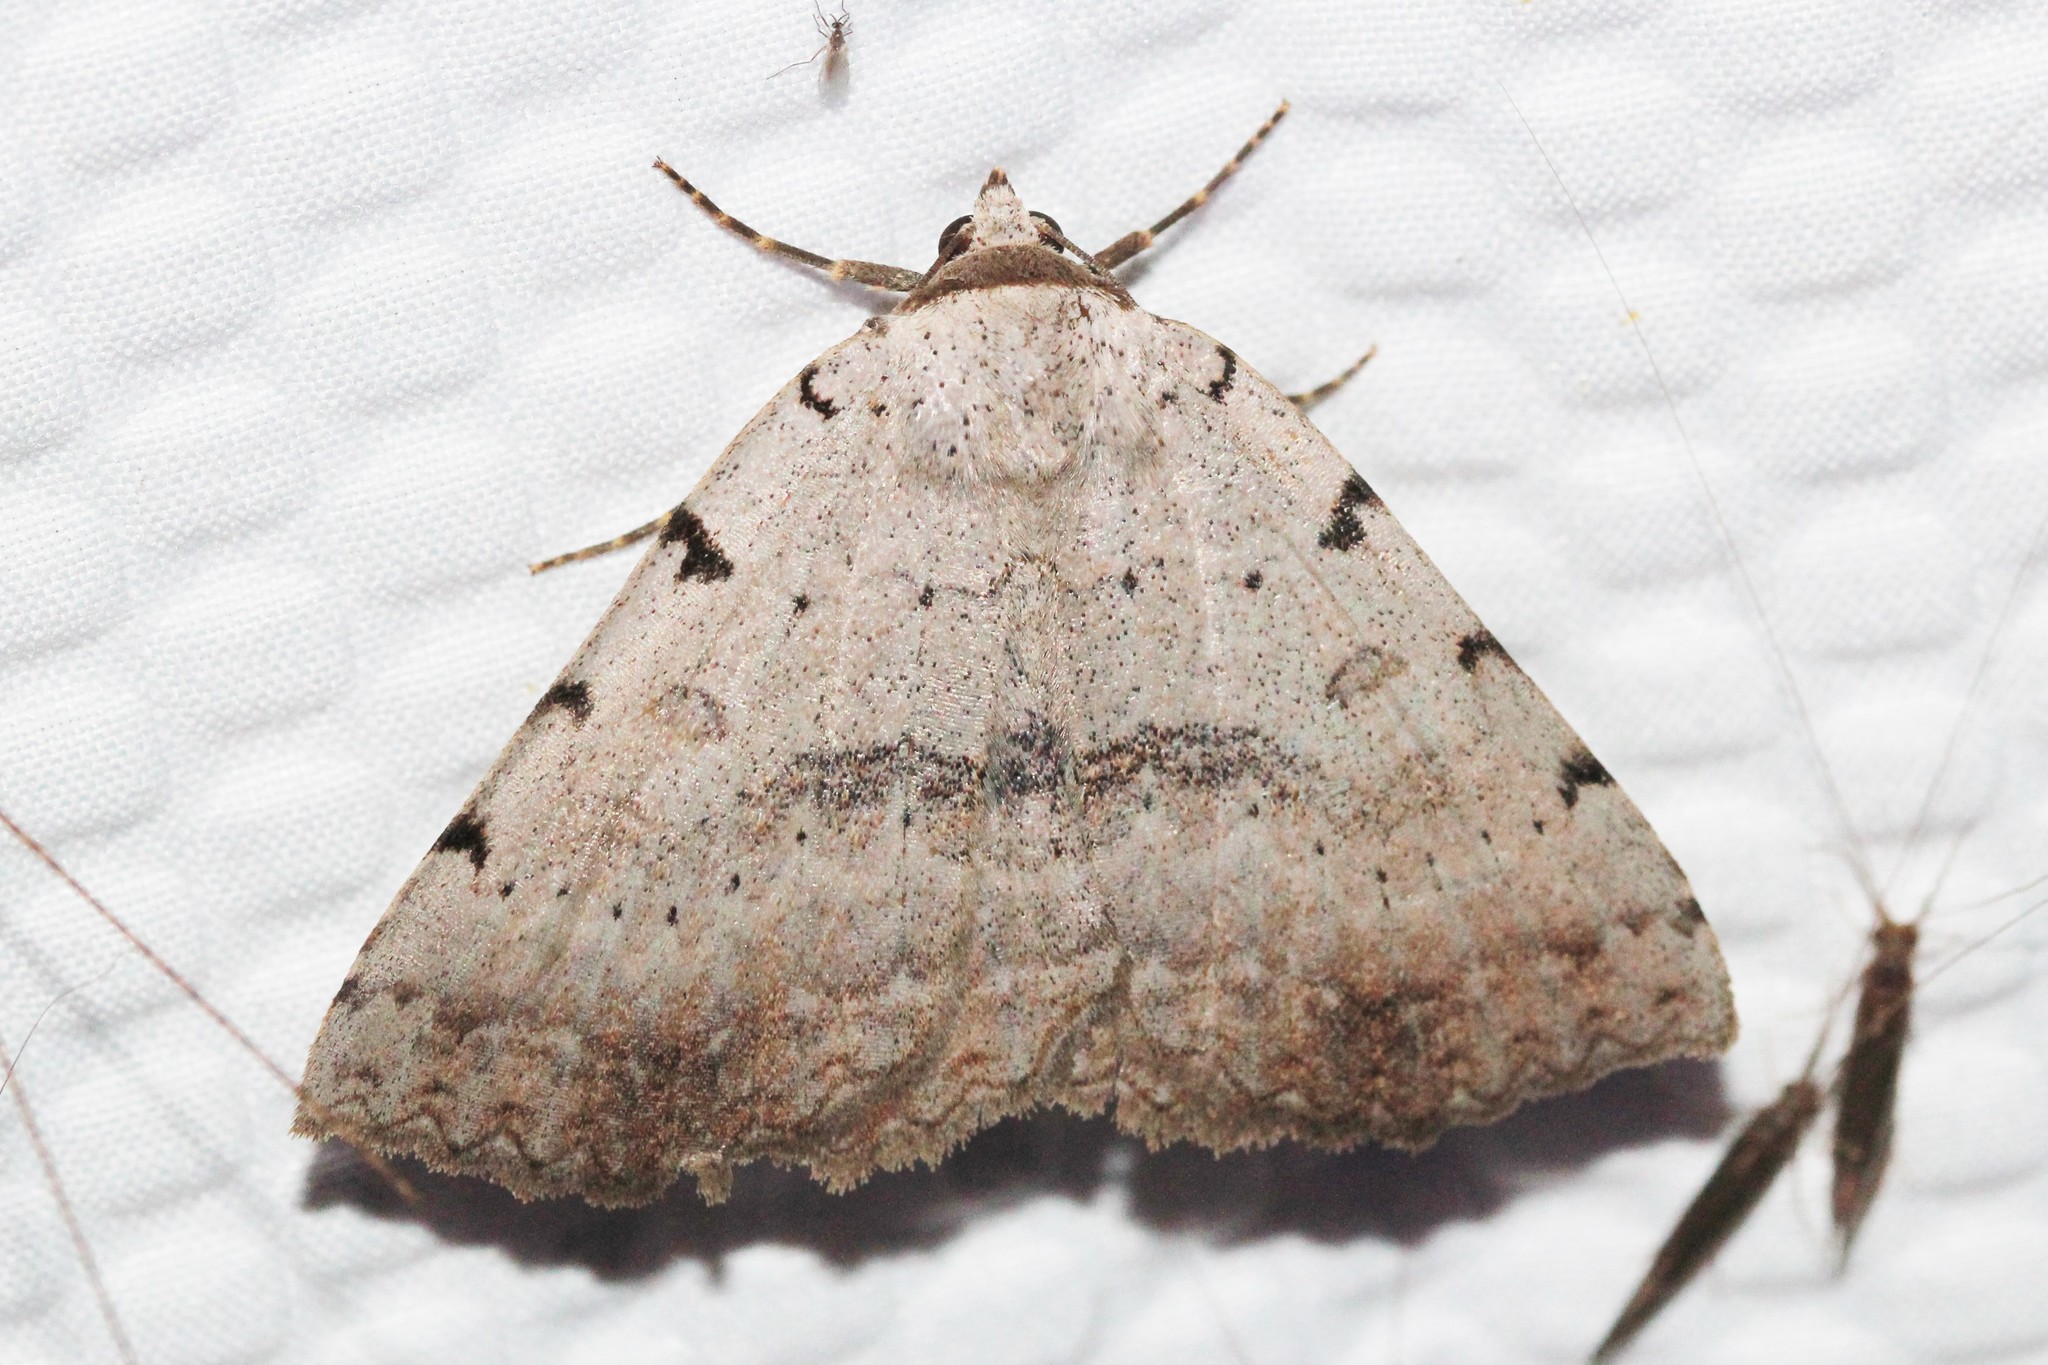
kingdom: Animalia
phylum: Arthropoda
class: Insecta
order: Lepidoptera
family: Erebidae
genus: Spiloloma
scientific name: Spiloloma lunilinea
